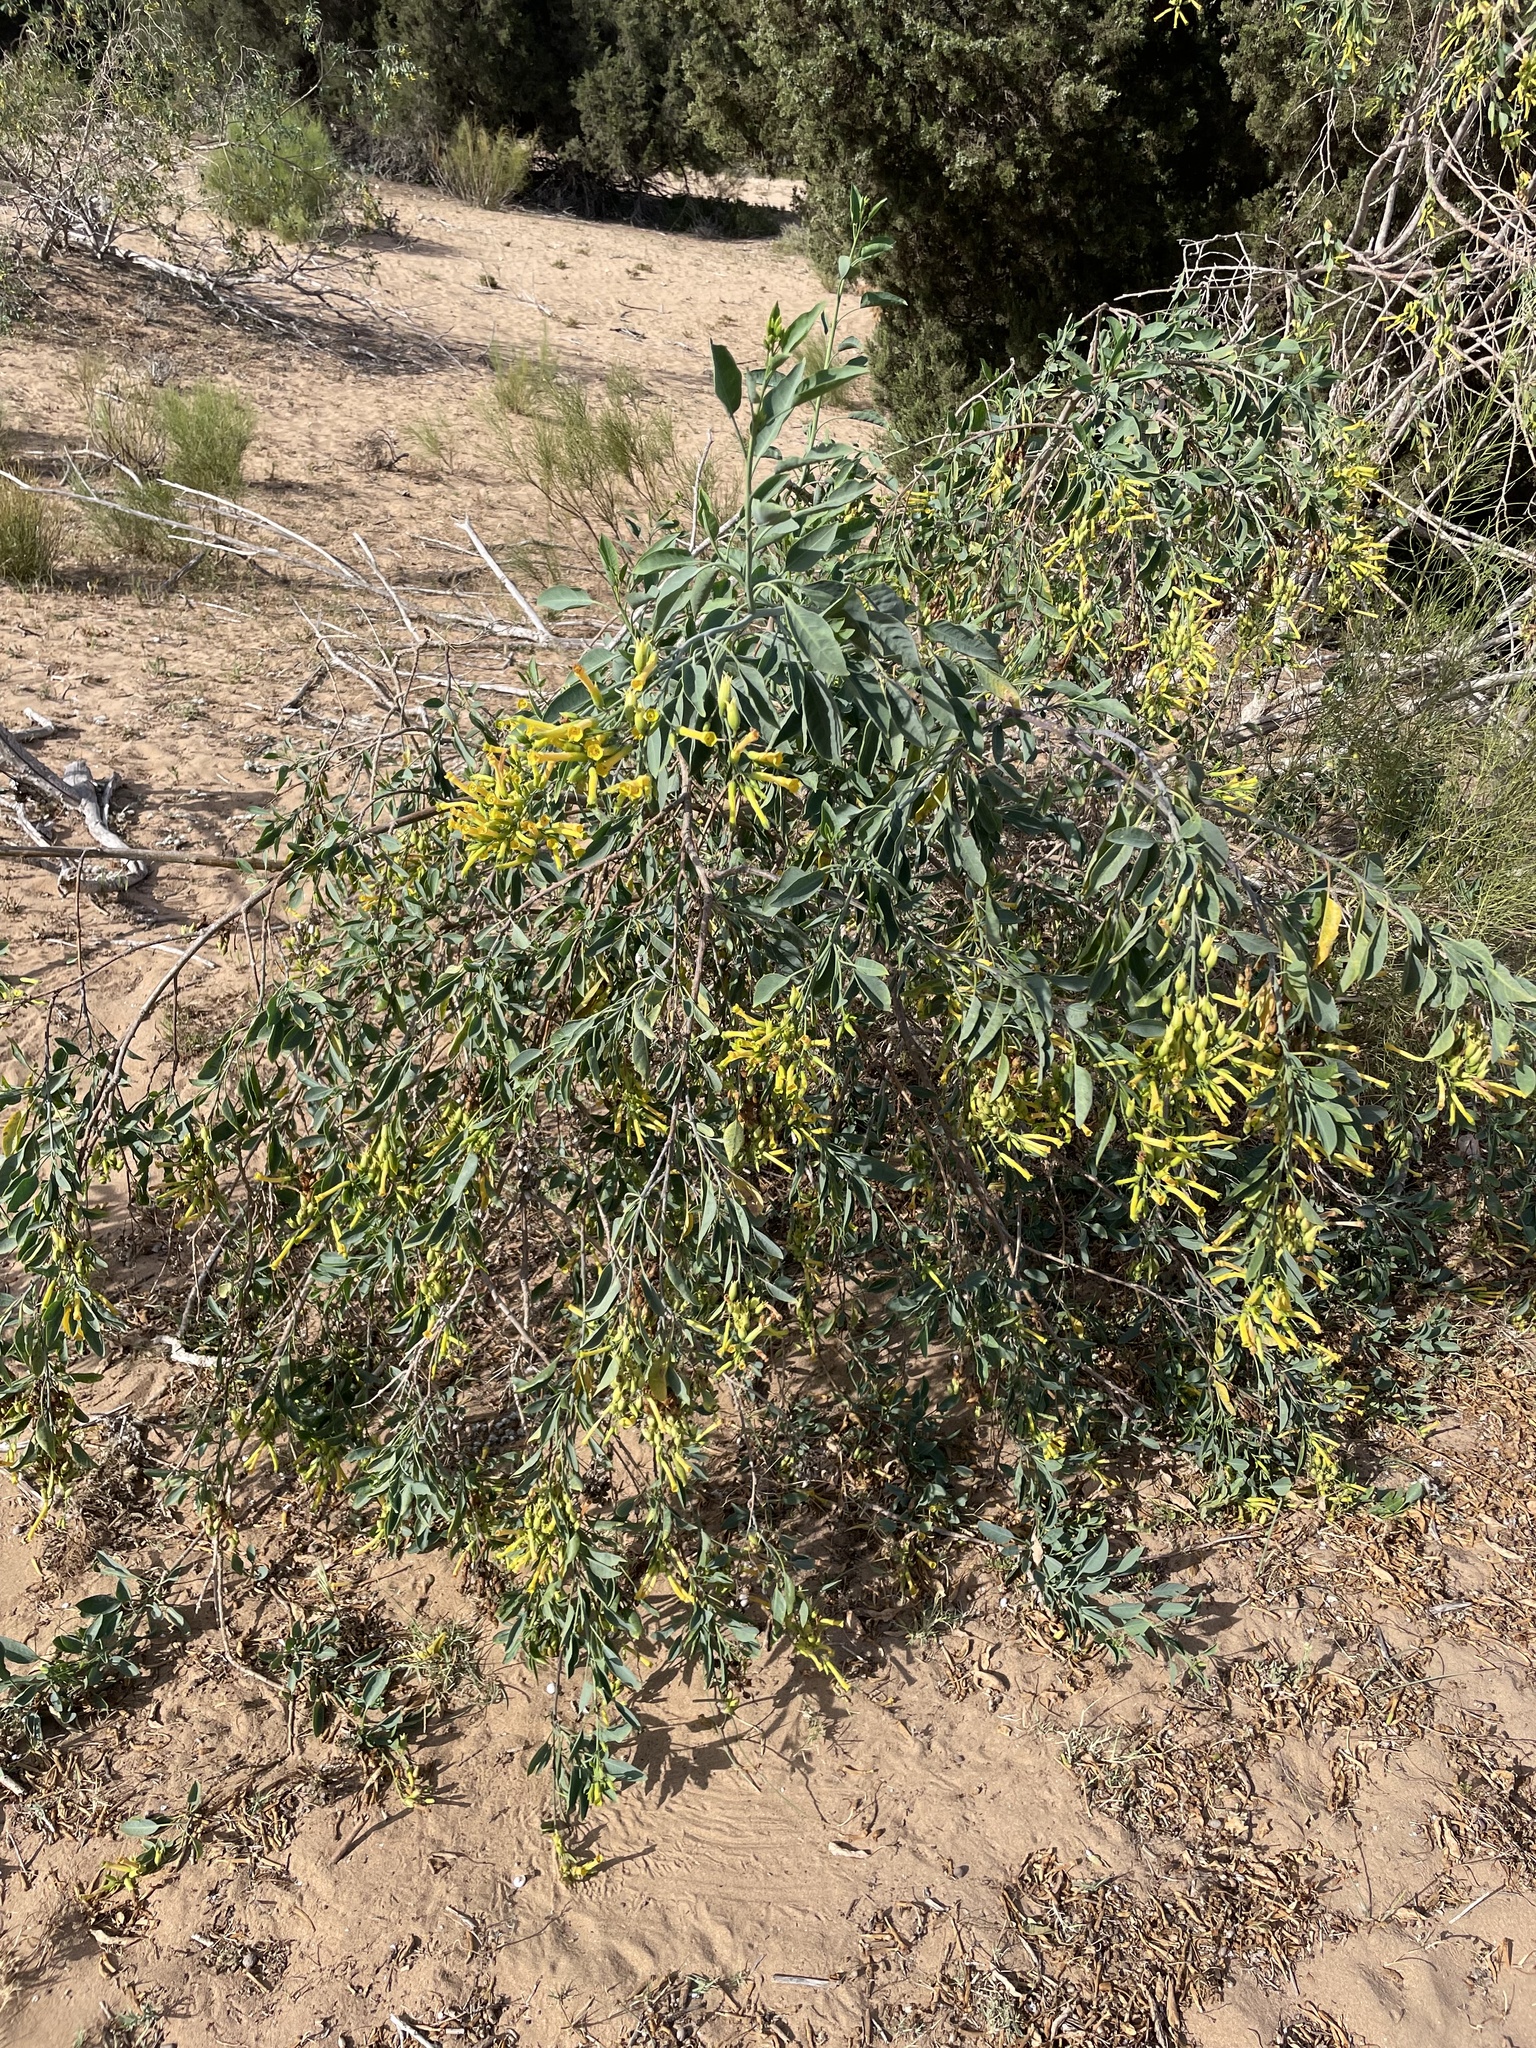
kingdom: Plantae
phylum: Tracheophyta
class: Magnoliopsida
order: Solanales
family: Solanaceae
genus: Nicotiana
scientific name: Nicotiana glauca
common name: Tree tobacco
